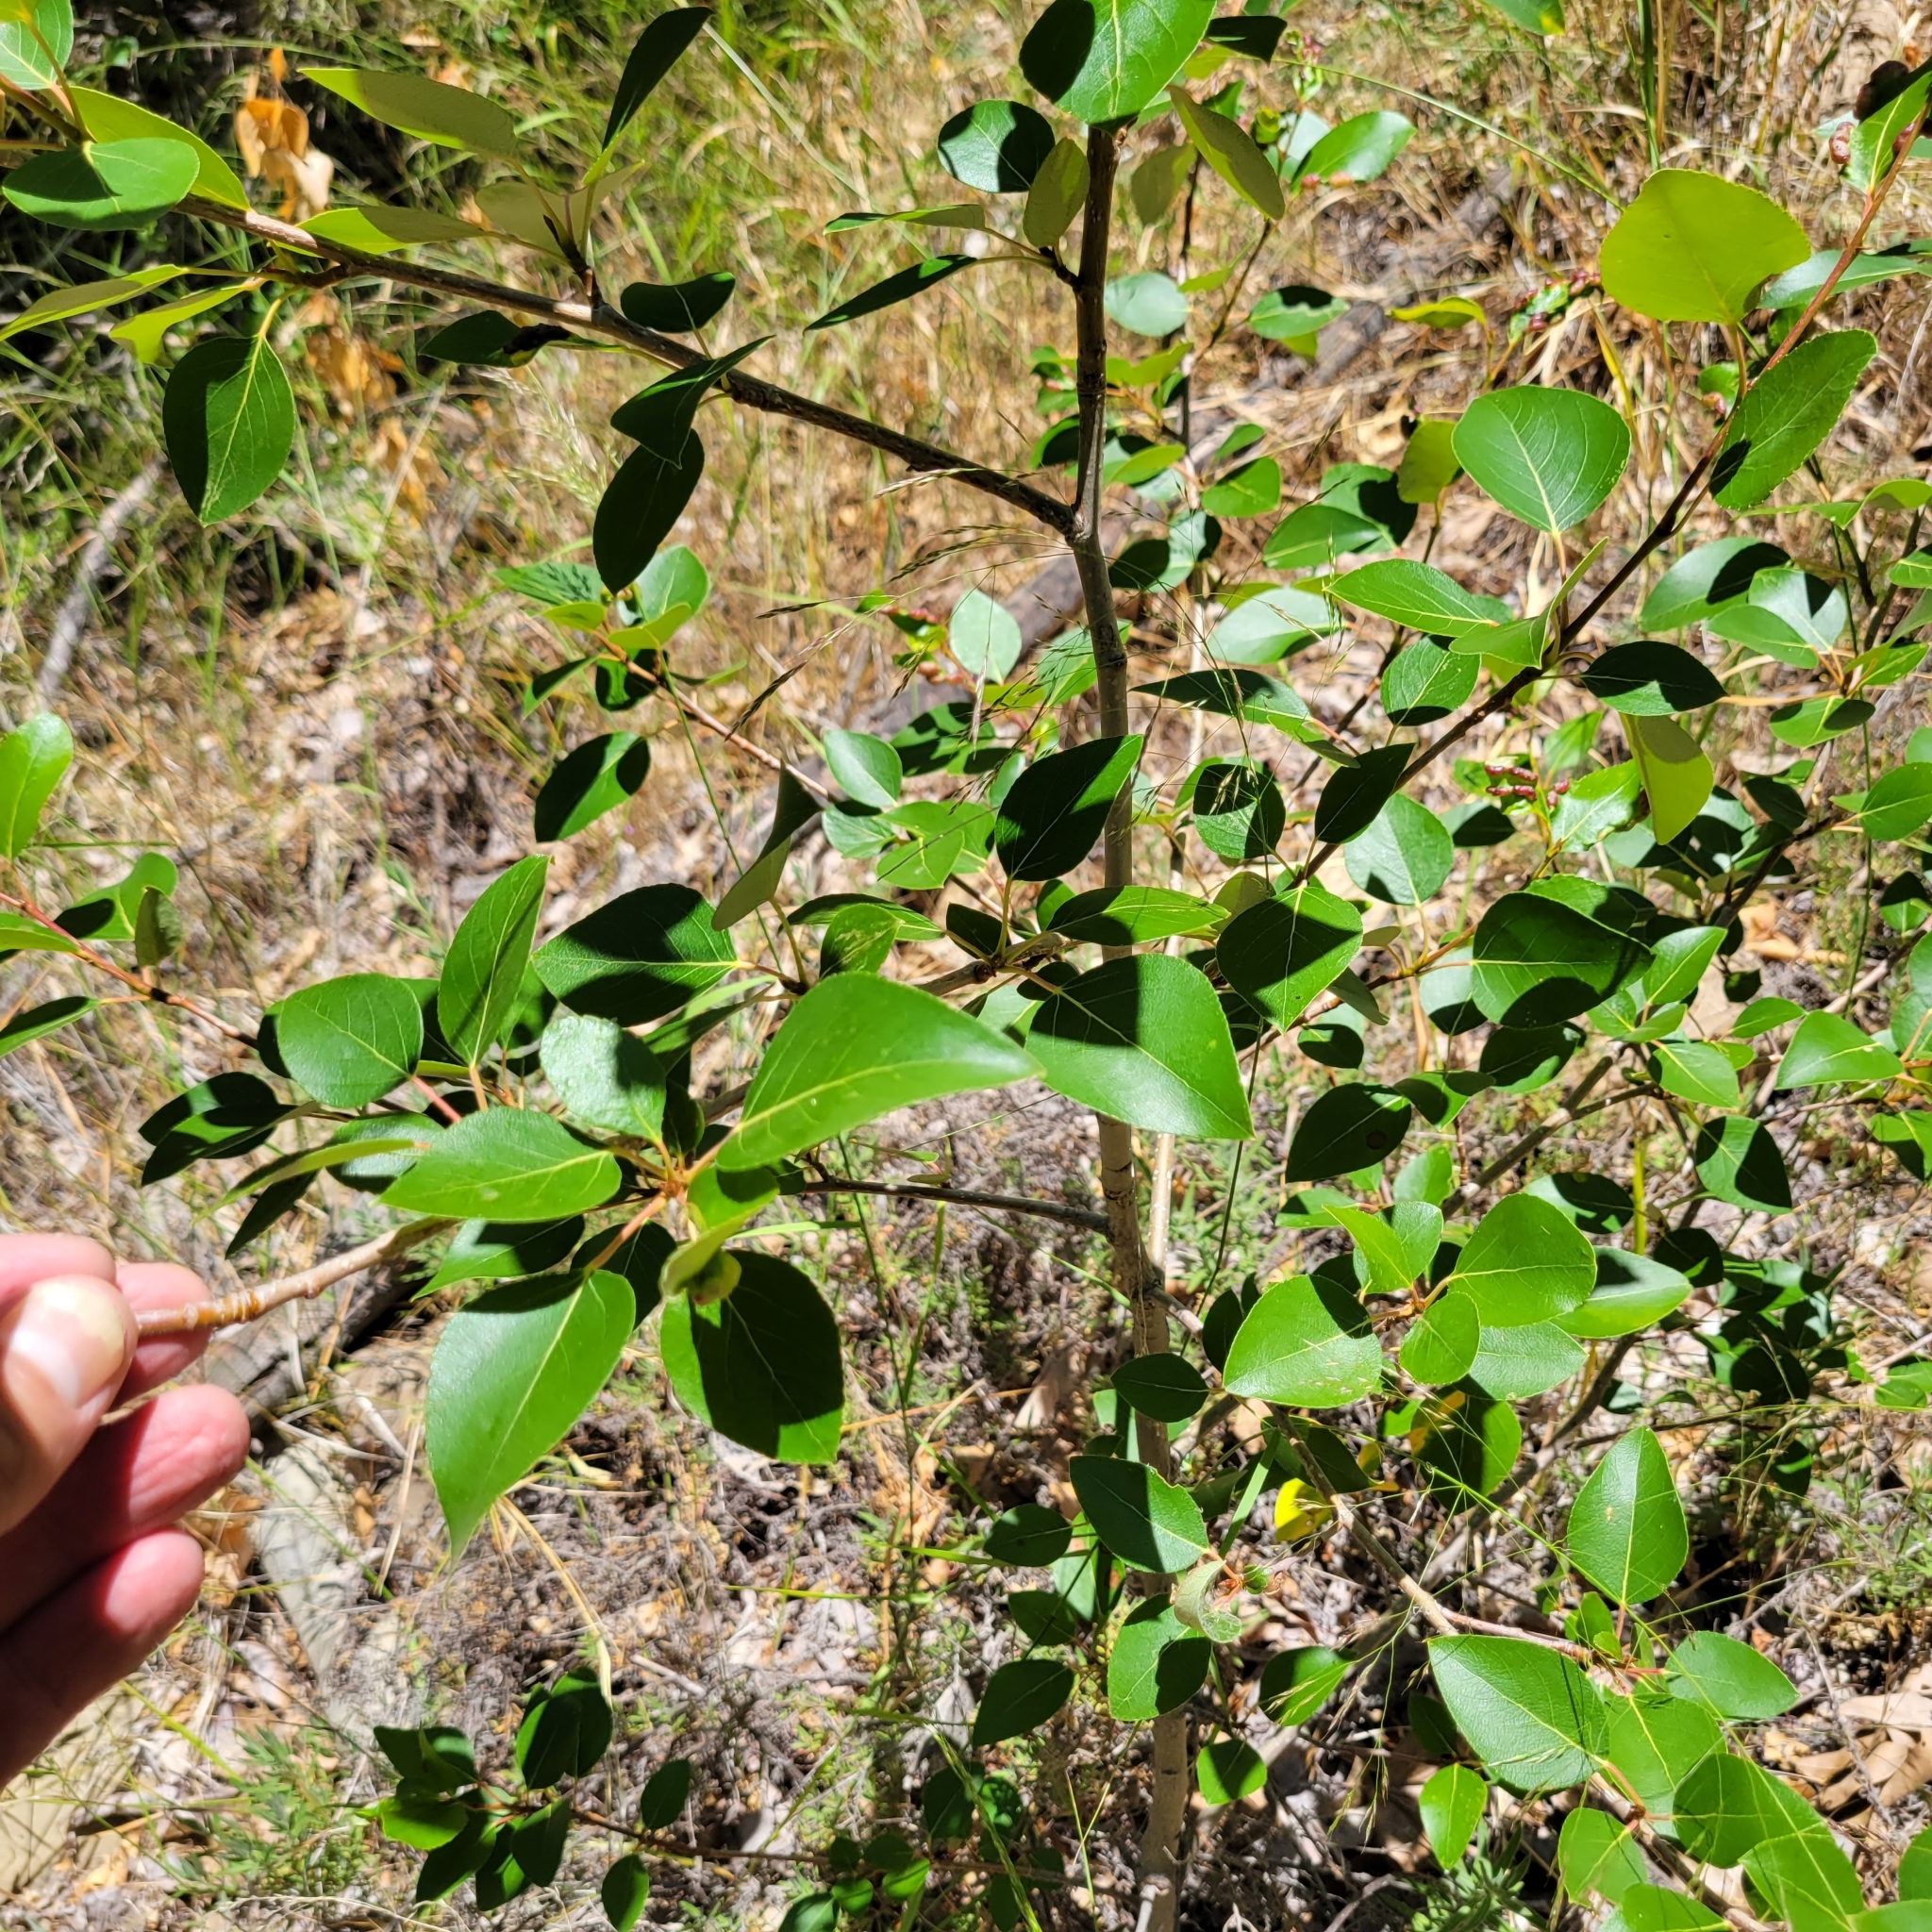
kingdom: Plantae
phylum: Tracheophyta
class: Magnoliopsida
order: Malpighiales
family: Salicaceae
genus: Populus
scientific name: Populus trichocarpa
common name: Black cottonwood
